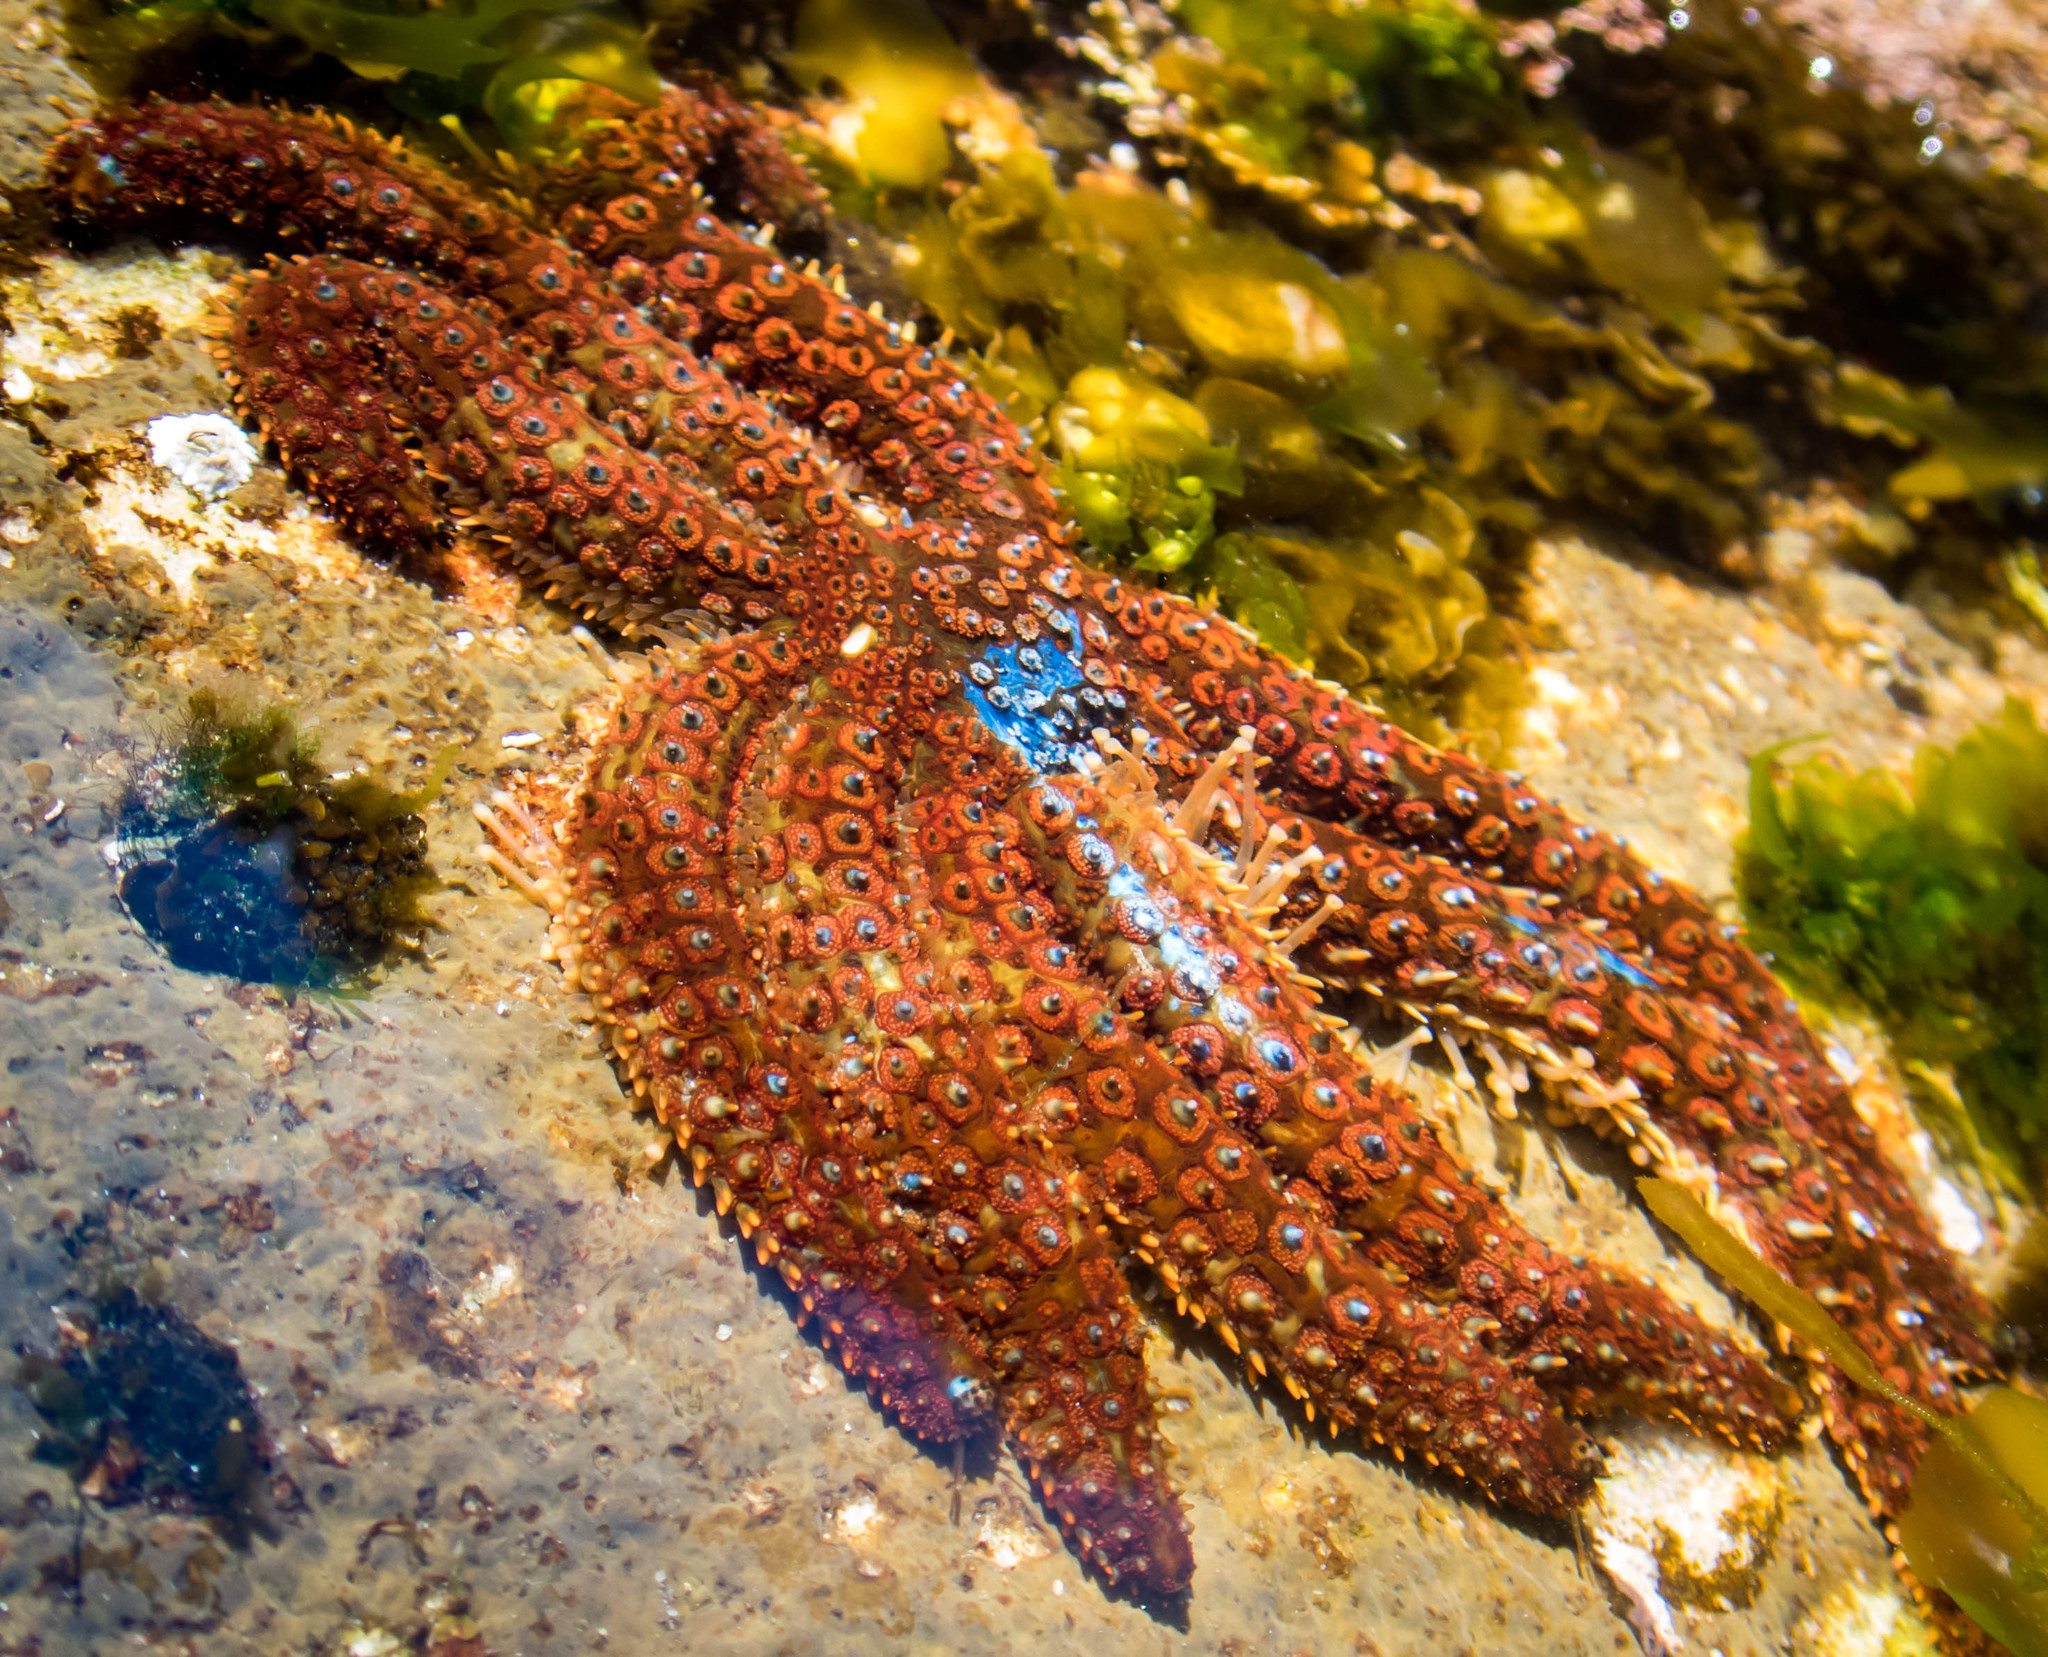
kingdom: Animalia
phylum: Echinodermata
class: Asteroidea
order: Forcipulatida
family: Asteriidae
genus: Coscinasterias
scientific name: Coscinasterias muricata
